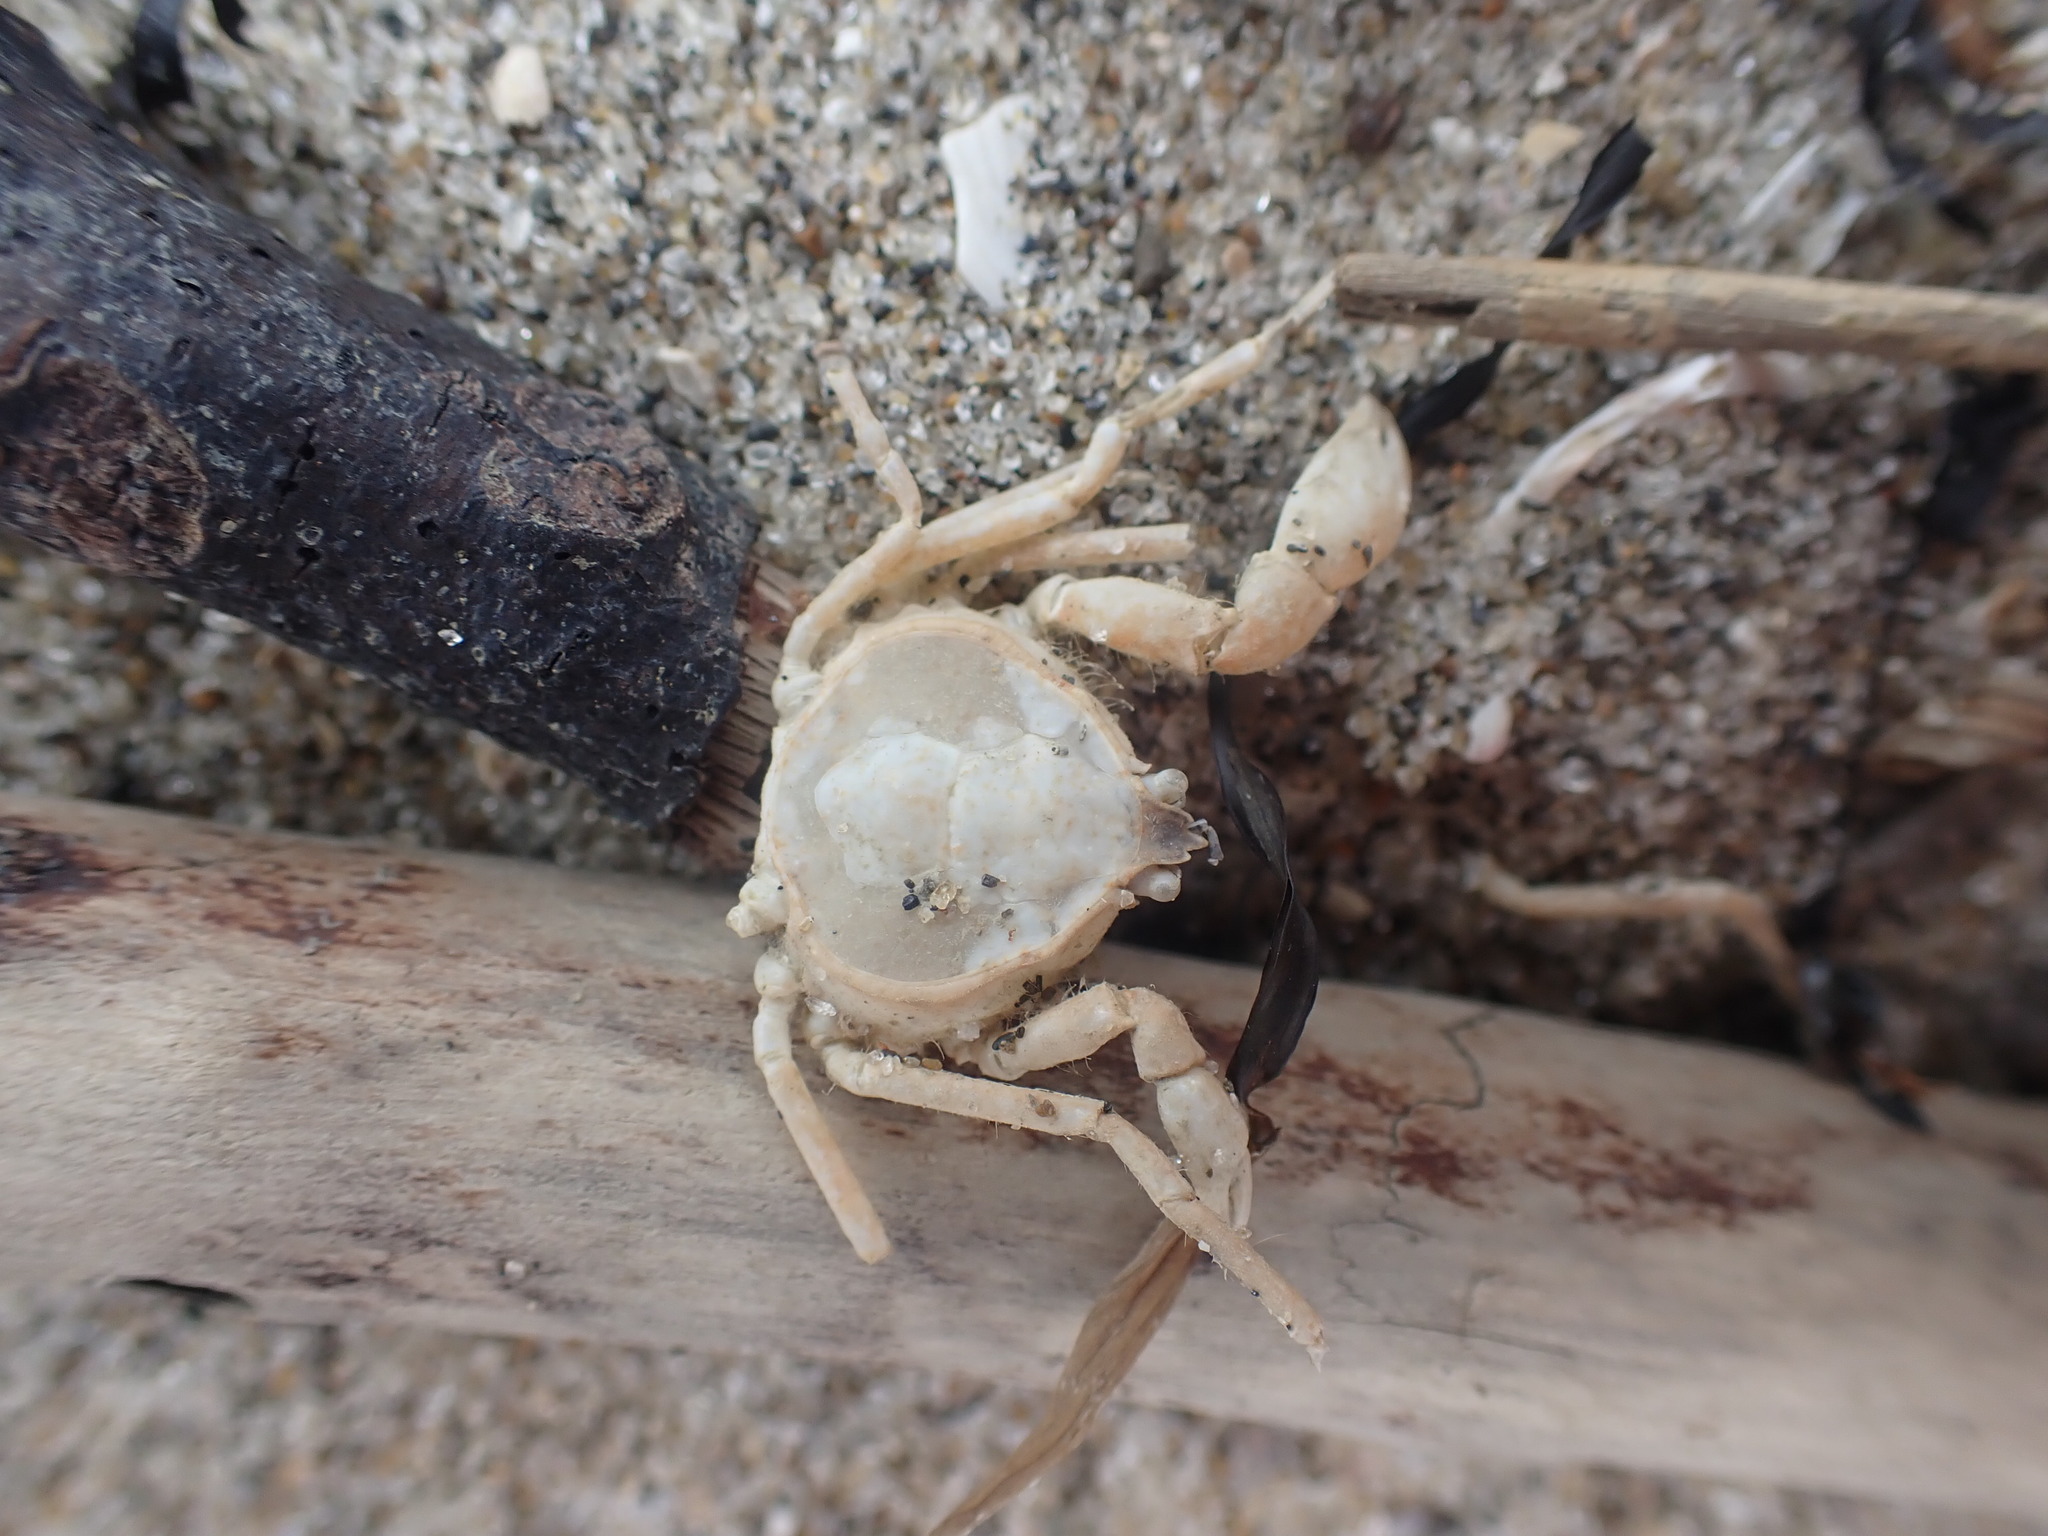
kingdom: Animalia
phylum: Arthropoda
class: Malacostraca
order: Decapoda
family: Hymenosomatidae
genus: Halicarcinus
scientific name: Halicarcinus whitei
